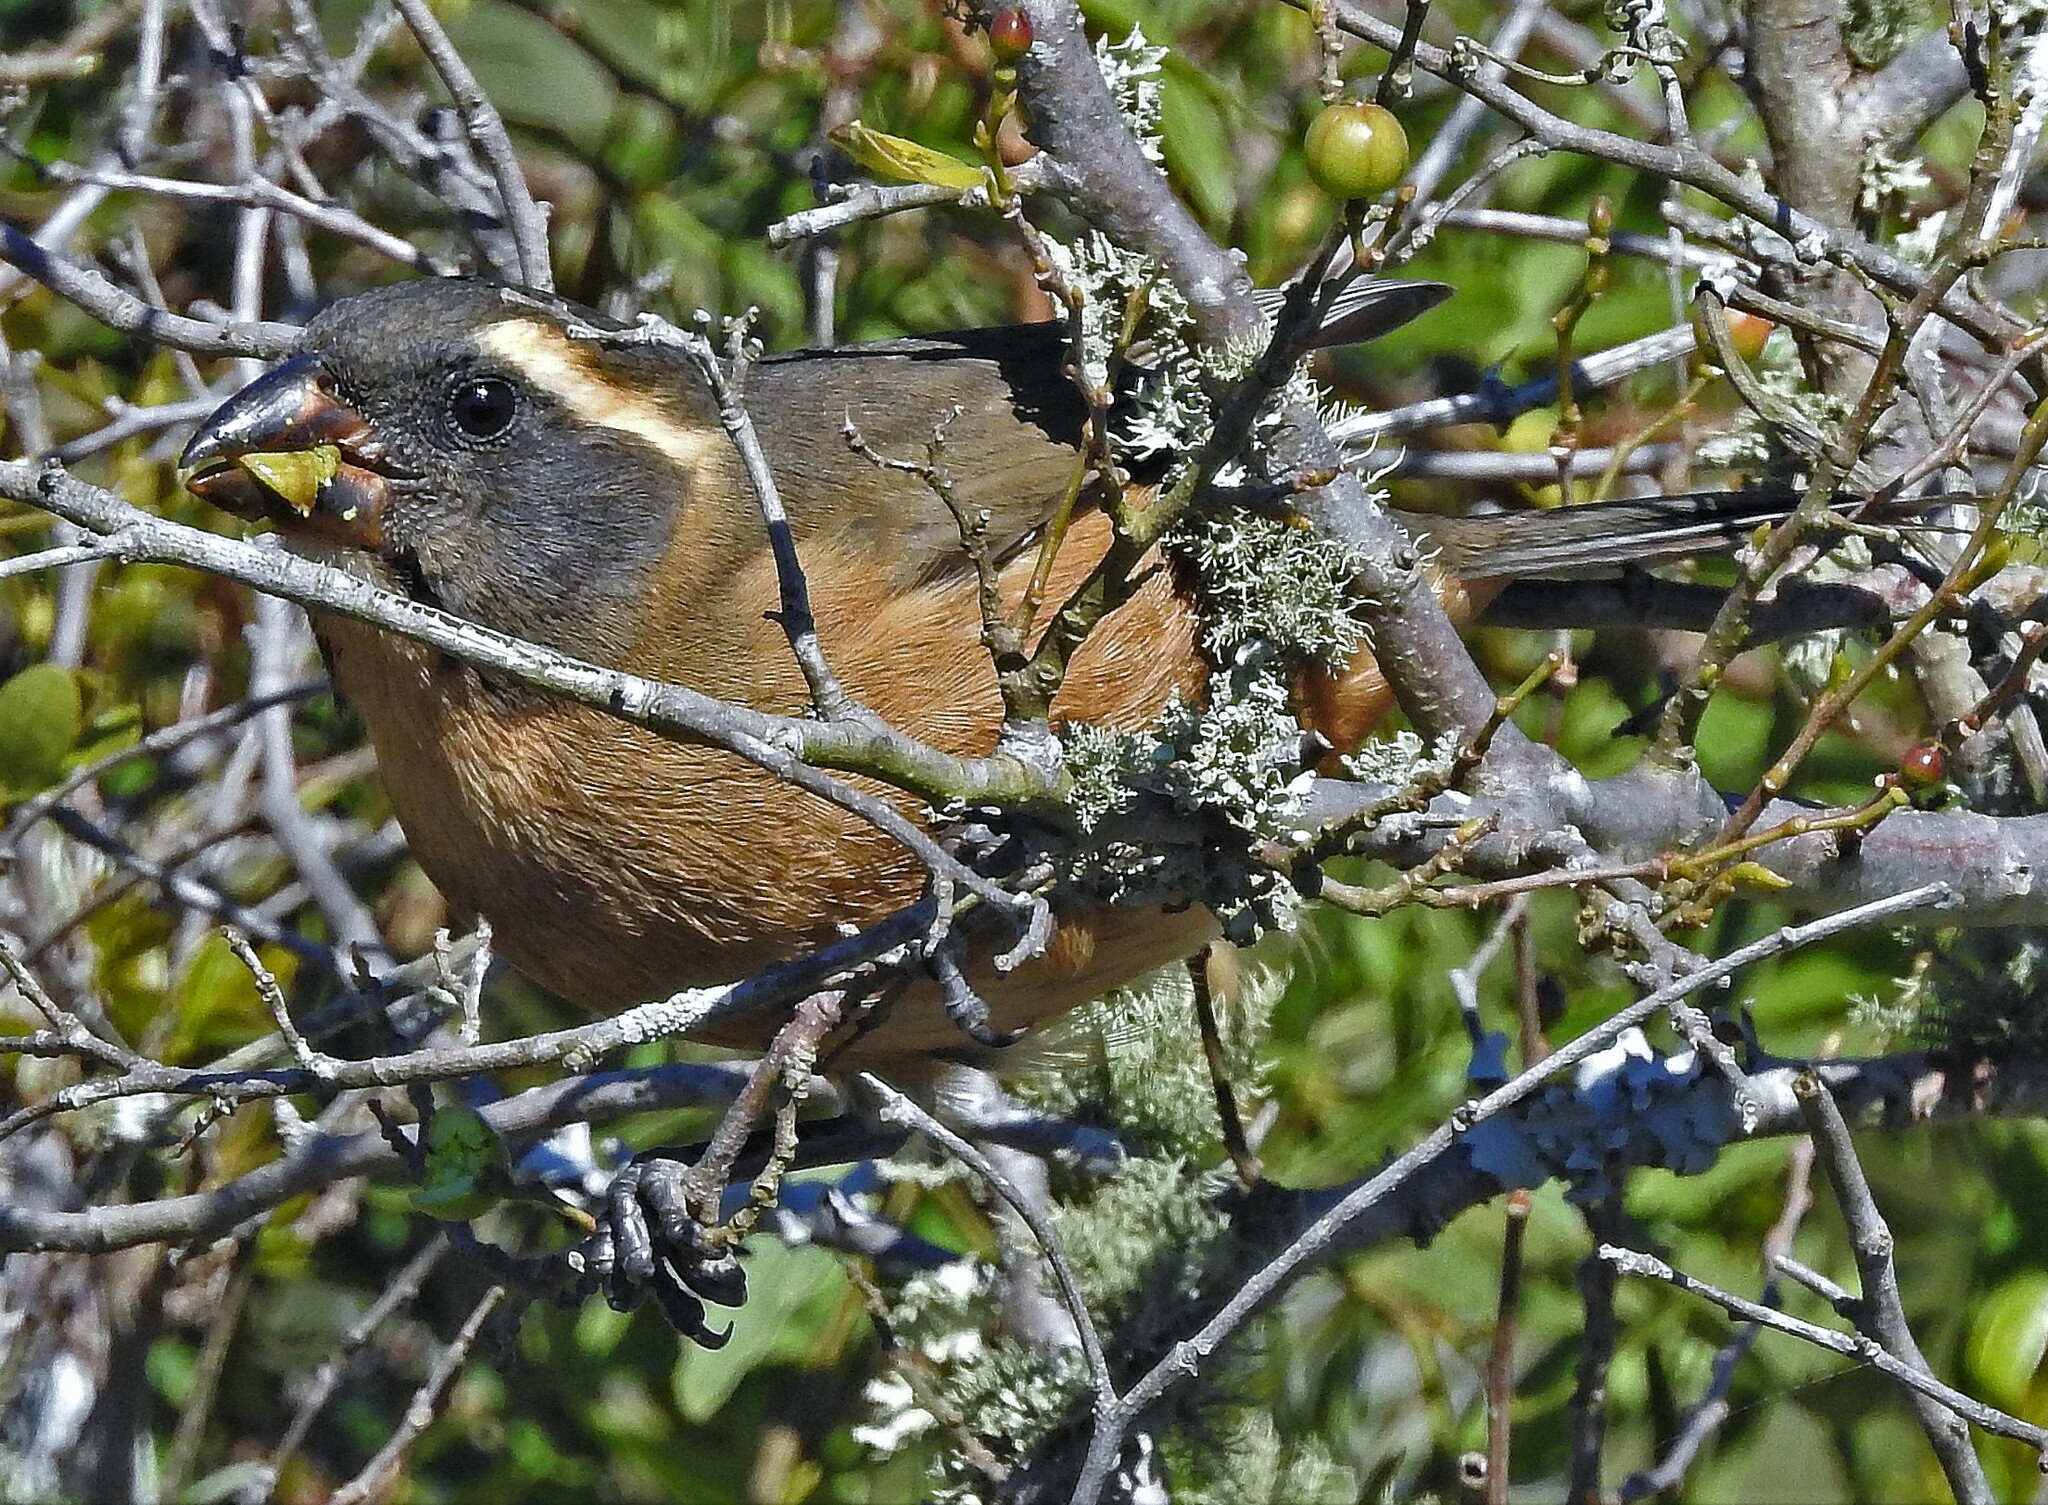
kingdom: Animalia
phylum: Chordata
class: Aves
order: Passeriformes
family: Thraupidae
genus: Saltator
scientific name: Saltator aurantiirostris
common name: Golden-billed saltator
